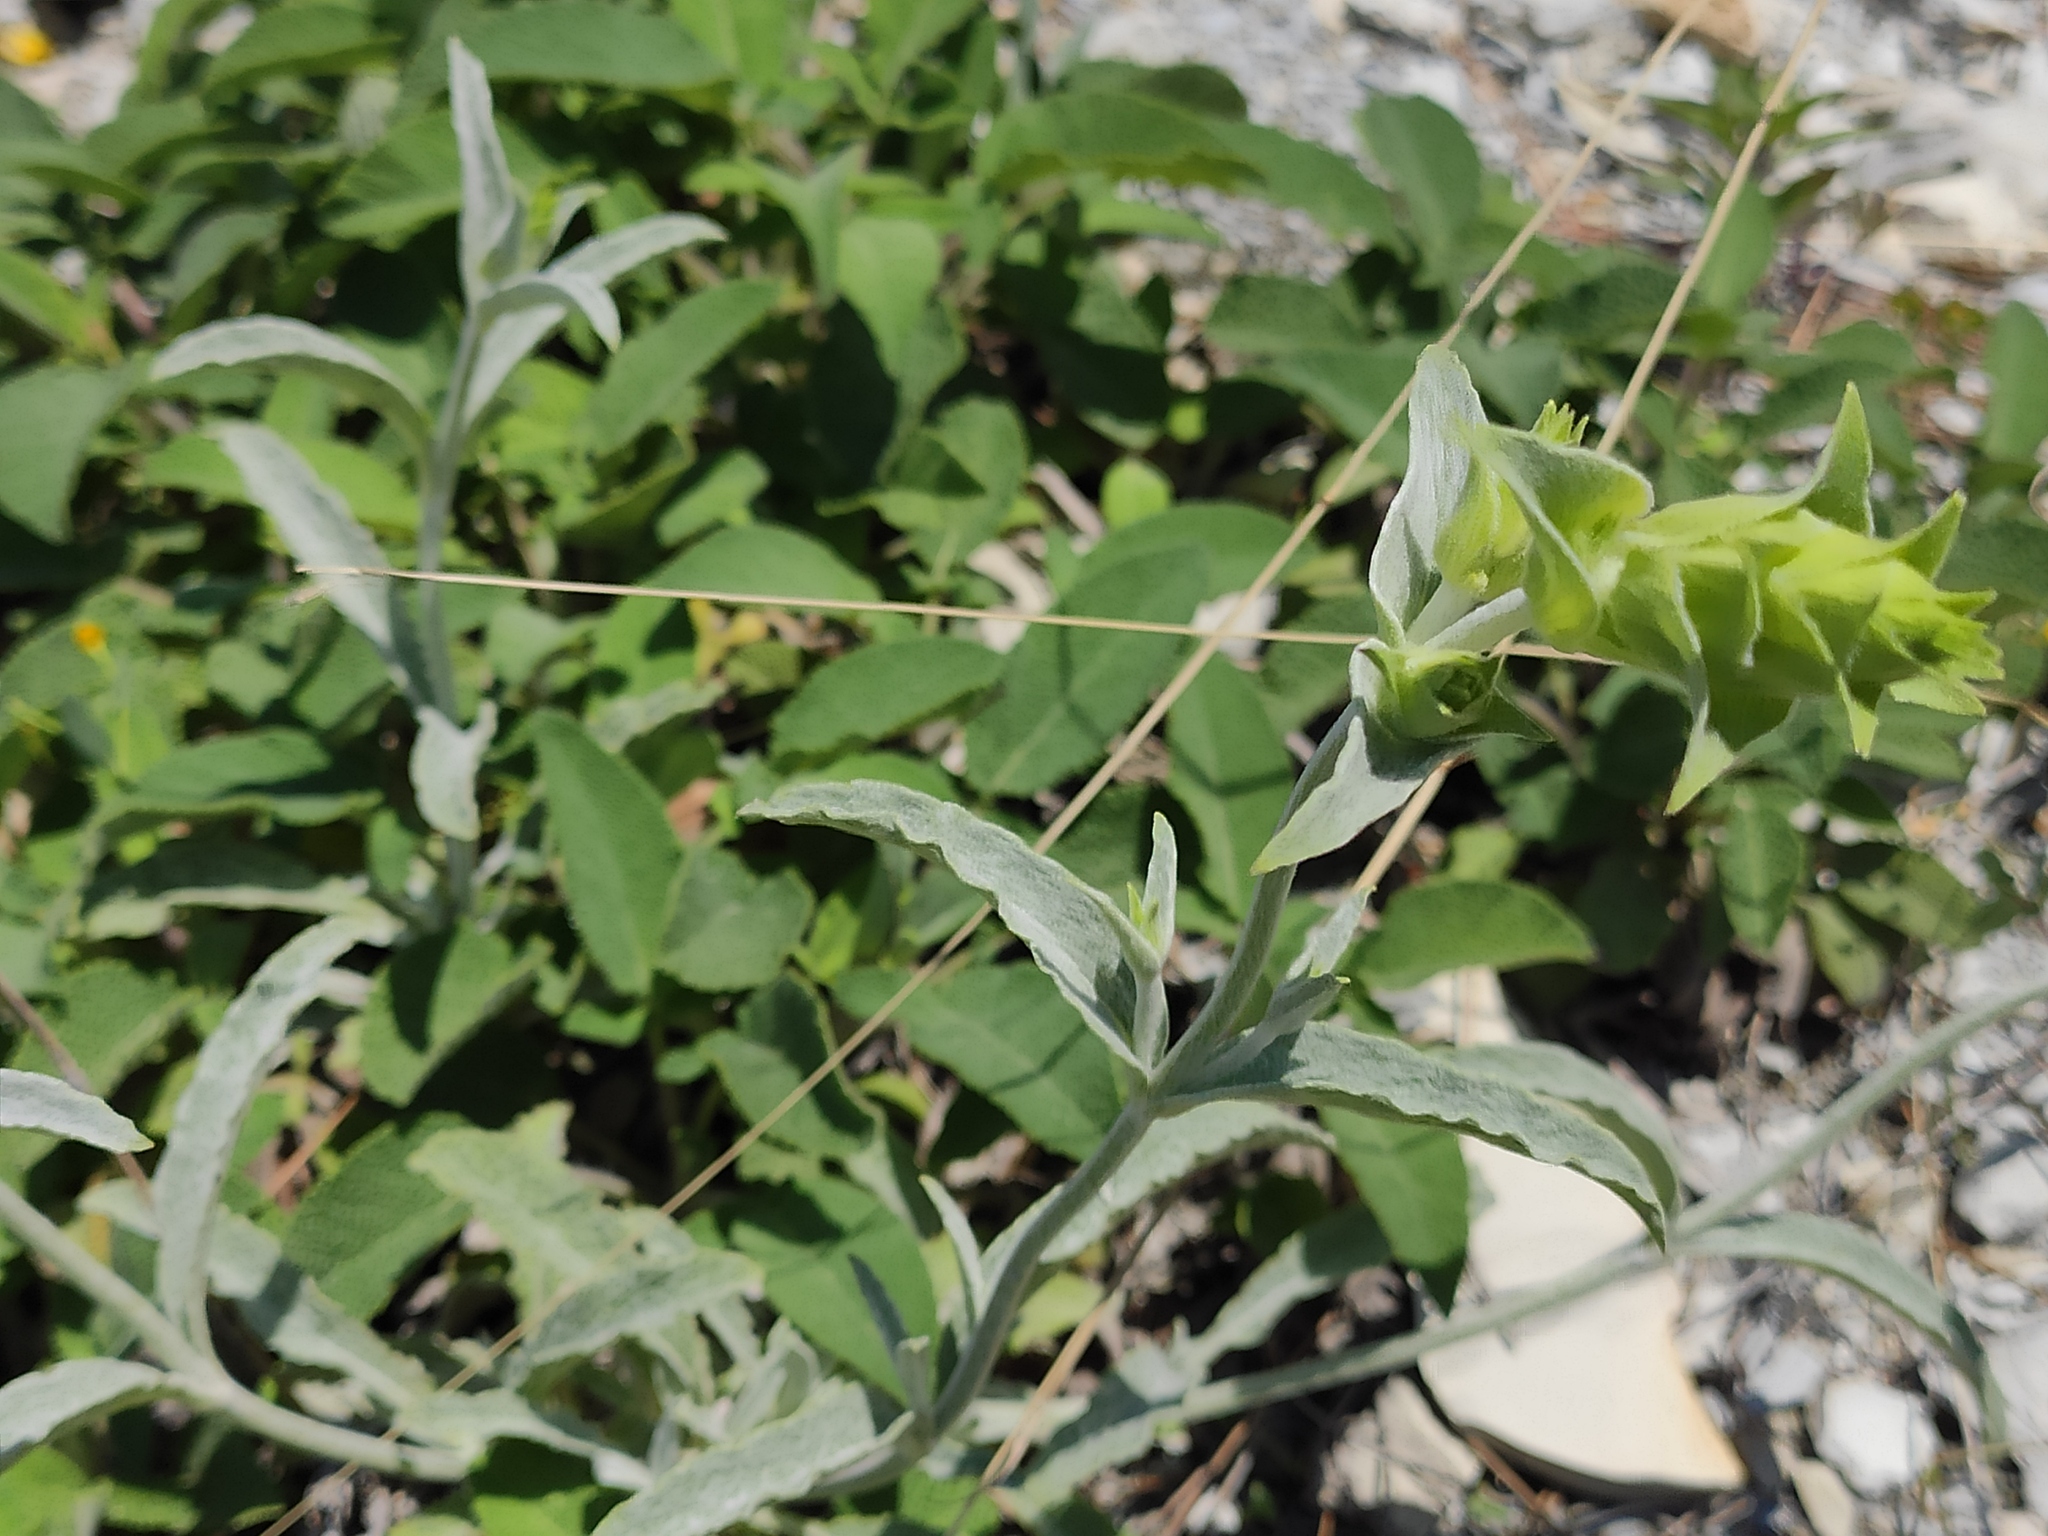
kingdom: Plantae
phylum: Tracheophyta
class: Magnoliopsida
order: Lamiales
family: Lamiaceae
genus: Sideritis
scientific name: Sideritis euxina
